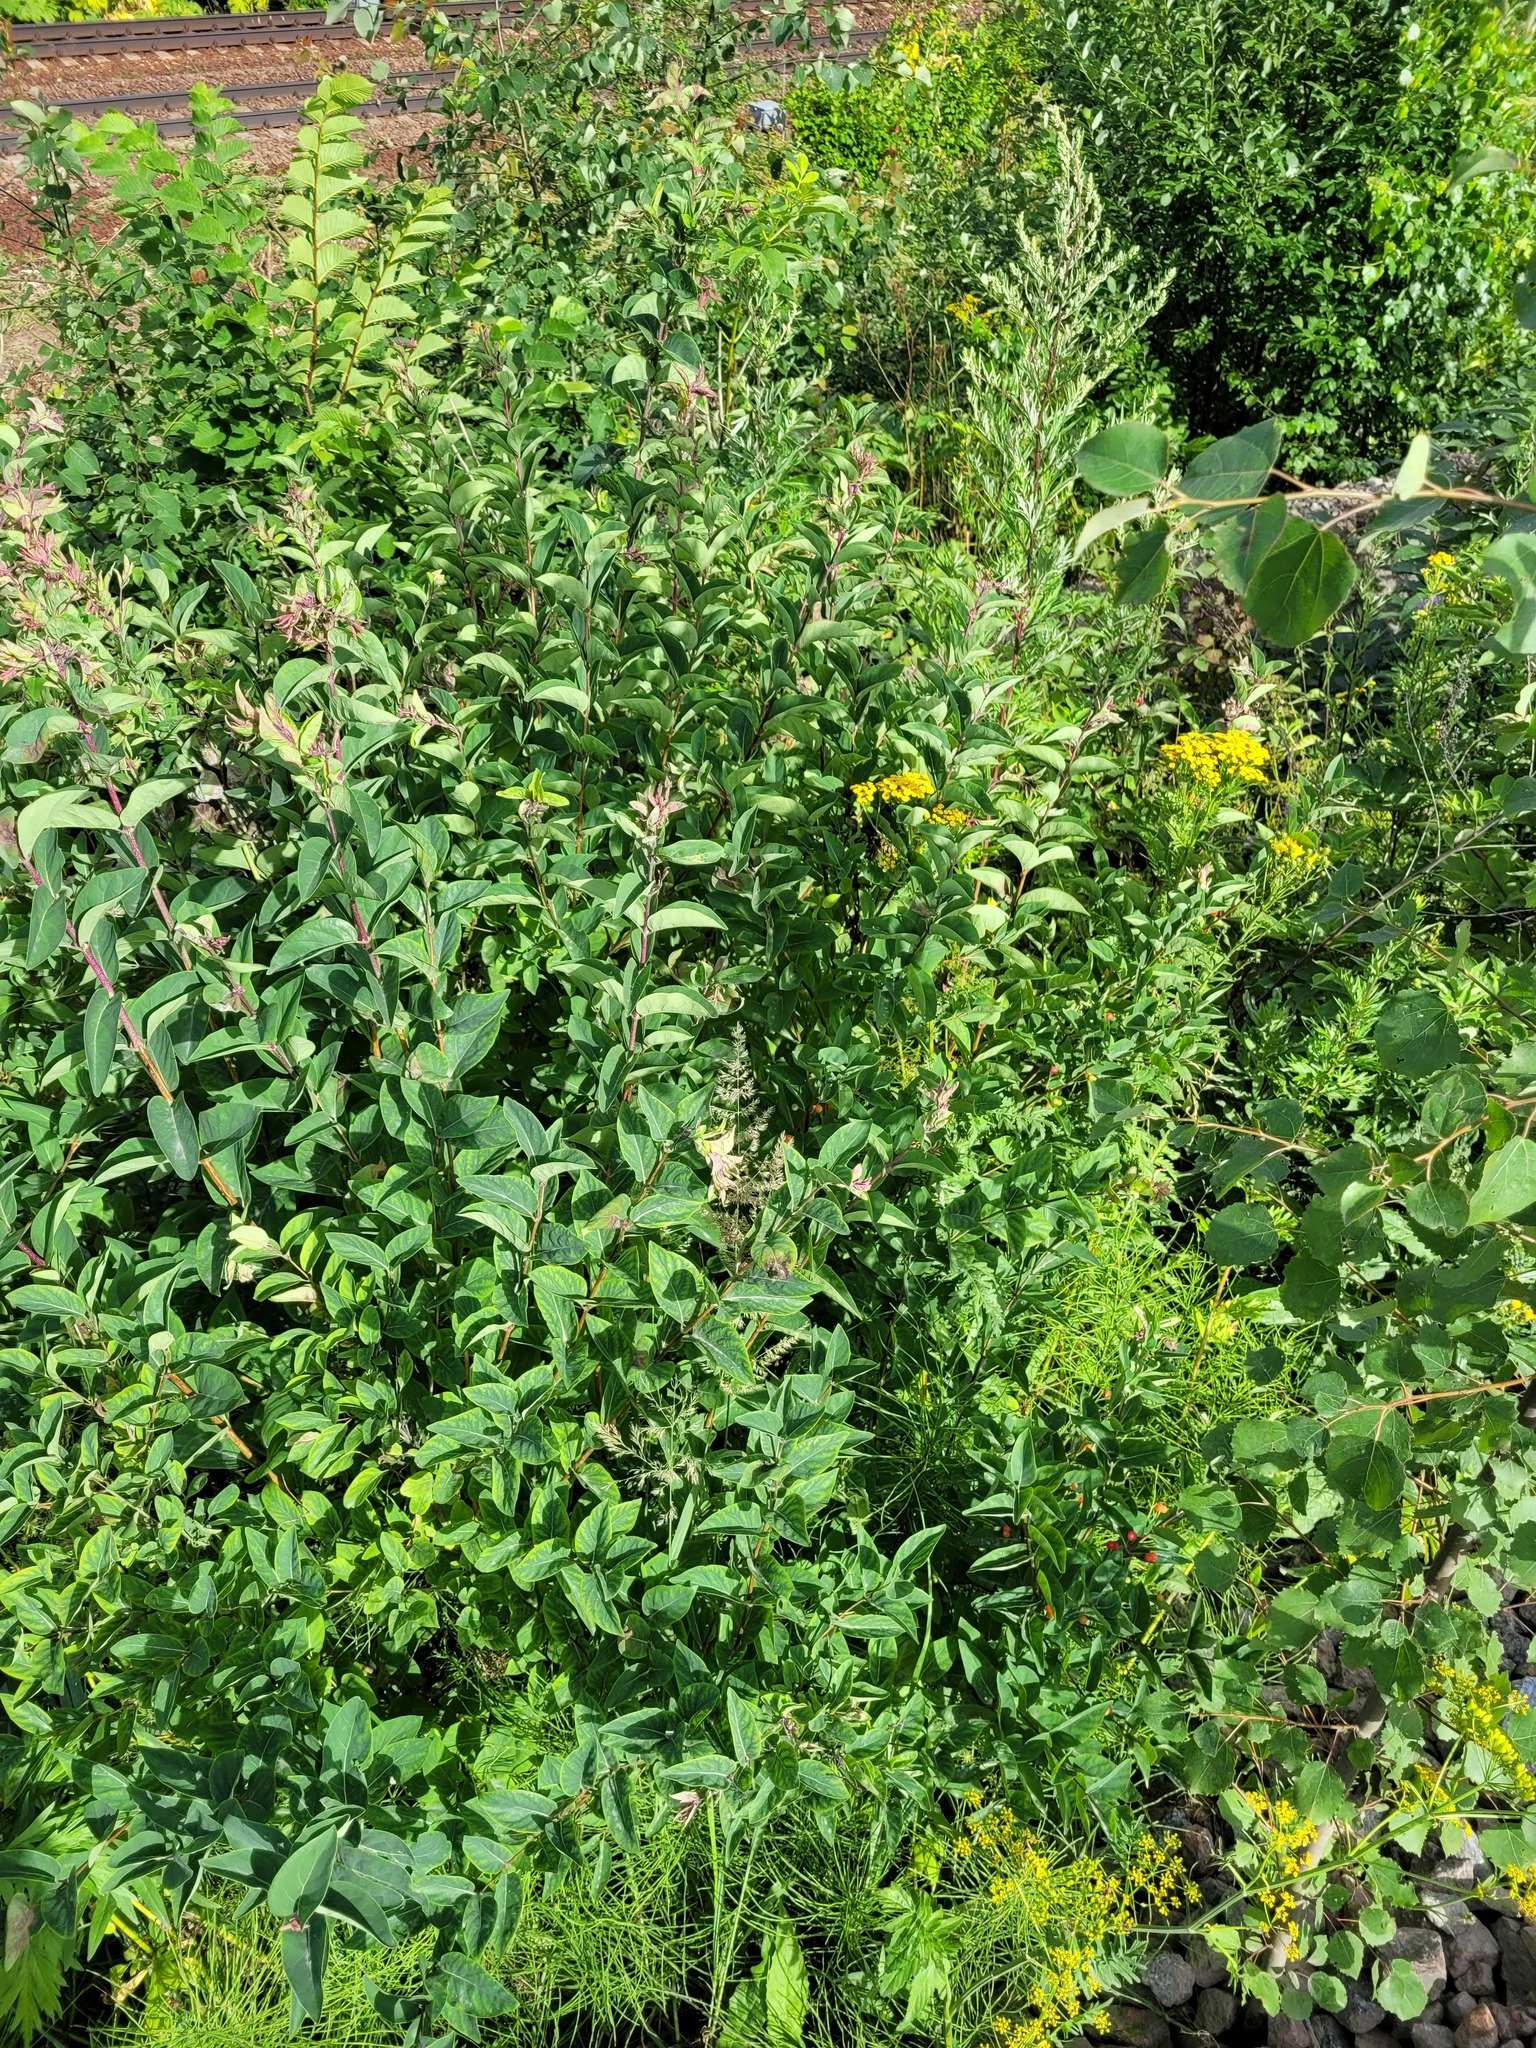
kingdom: Plantae
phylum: Tracheophyta
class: Magnoliopsida
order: Dipsacales
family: Caprifoliaceae
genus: Lonicera
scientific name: Lonicera tatarica
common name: Tatarian honeysuckle
